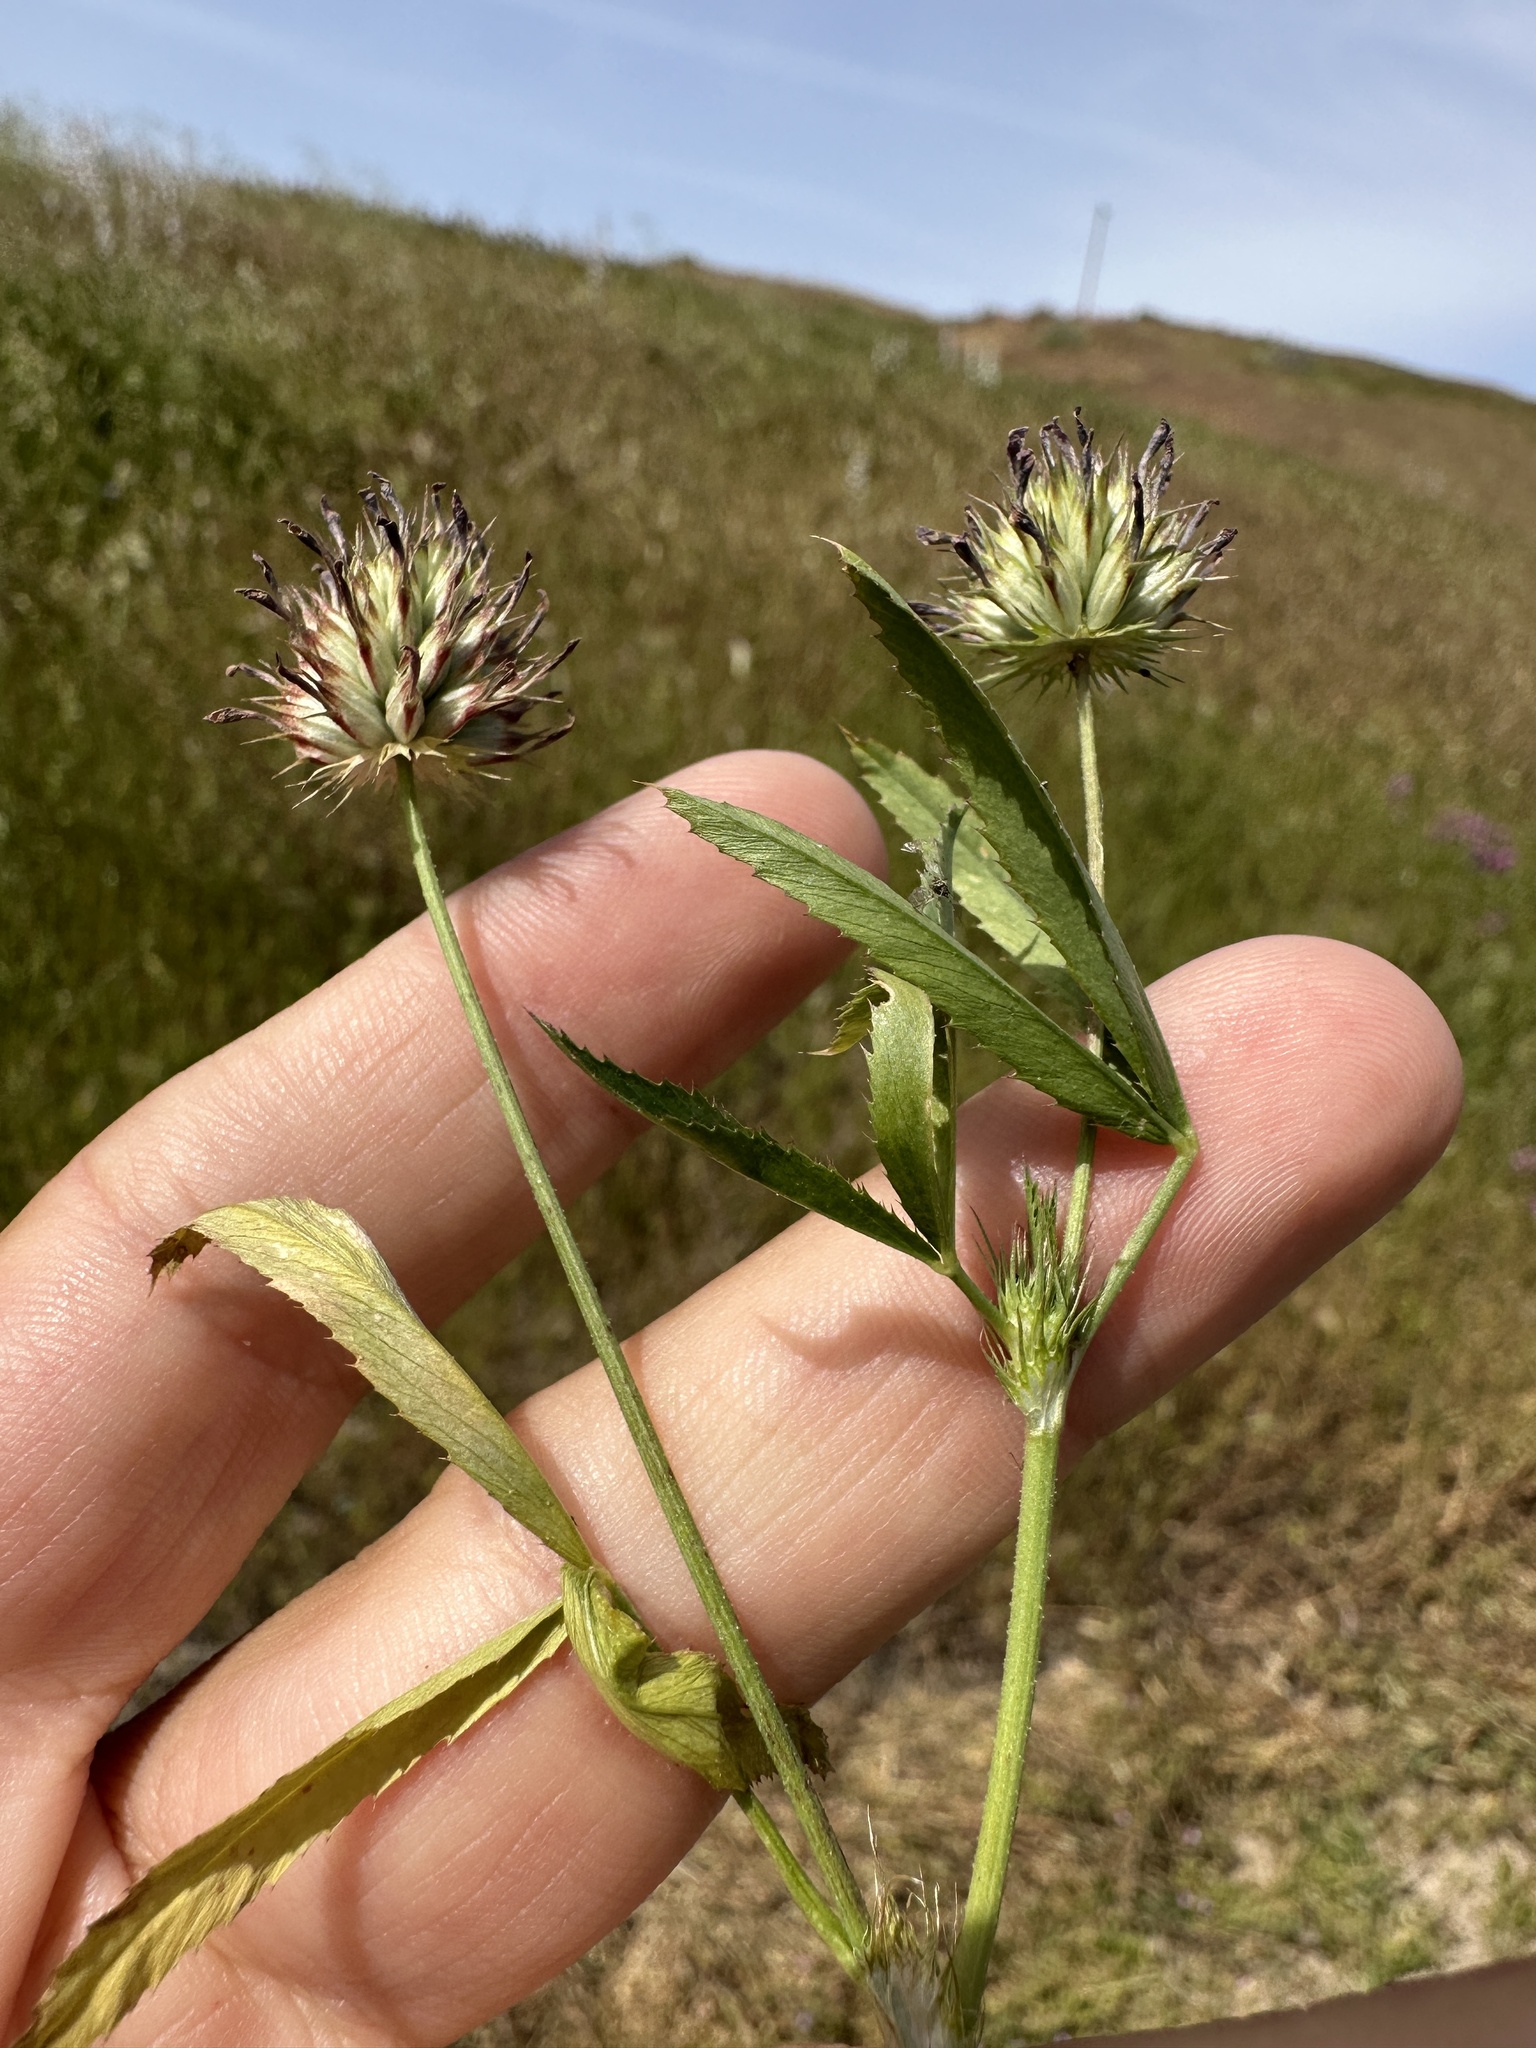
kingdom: Plantae
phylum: Tracheophyta
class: Magnoliopsida
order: Fabales
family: Fabaceae
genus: Trifolium
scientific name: Trifolium willdenovii
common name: Tomcat clover
